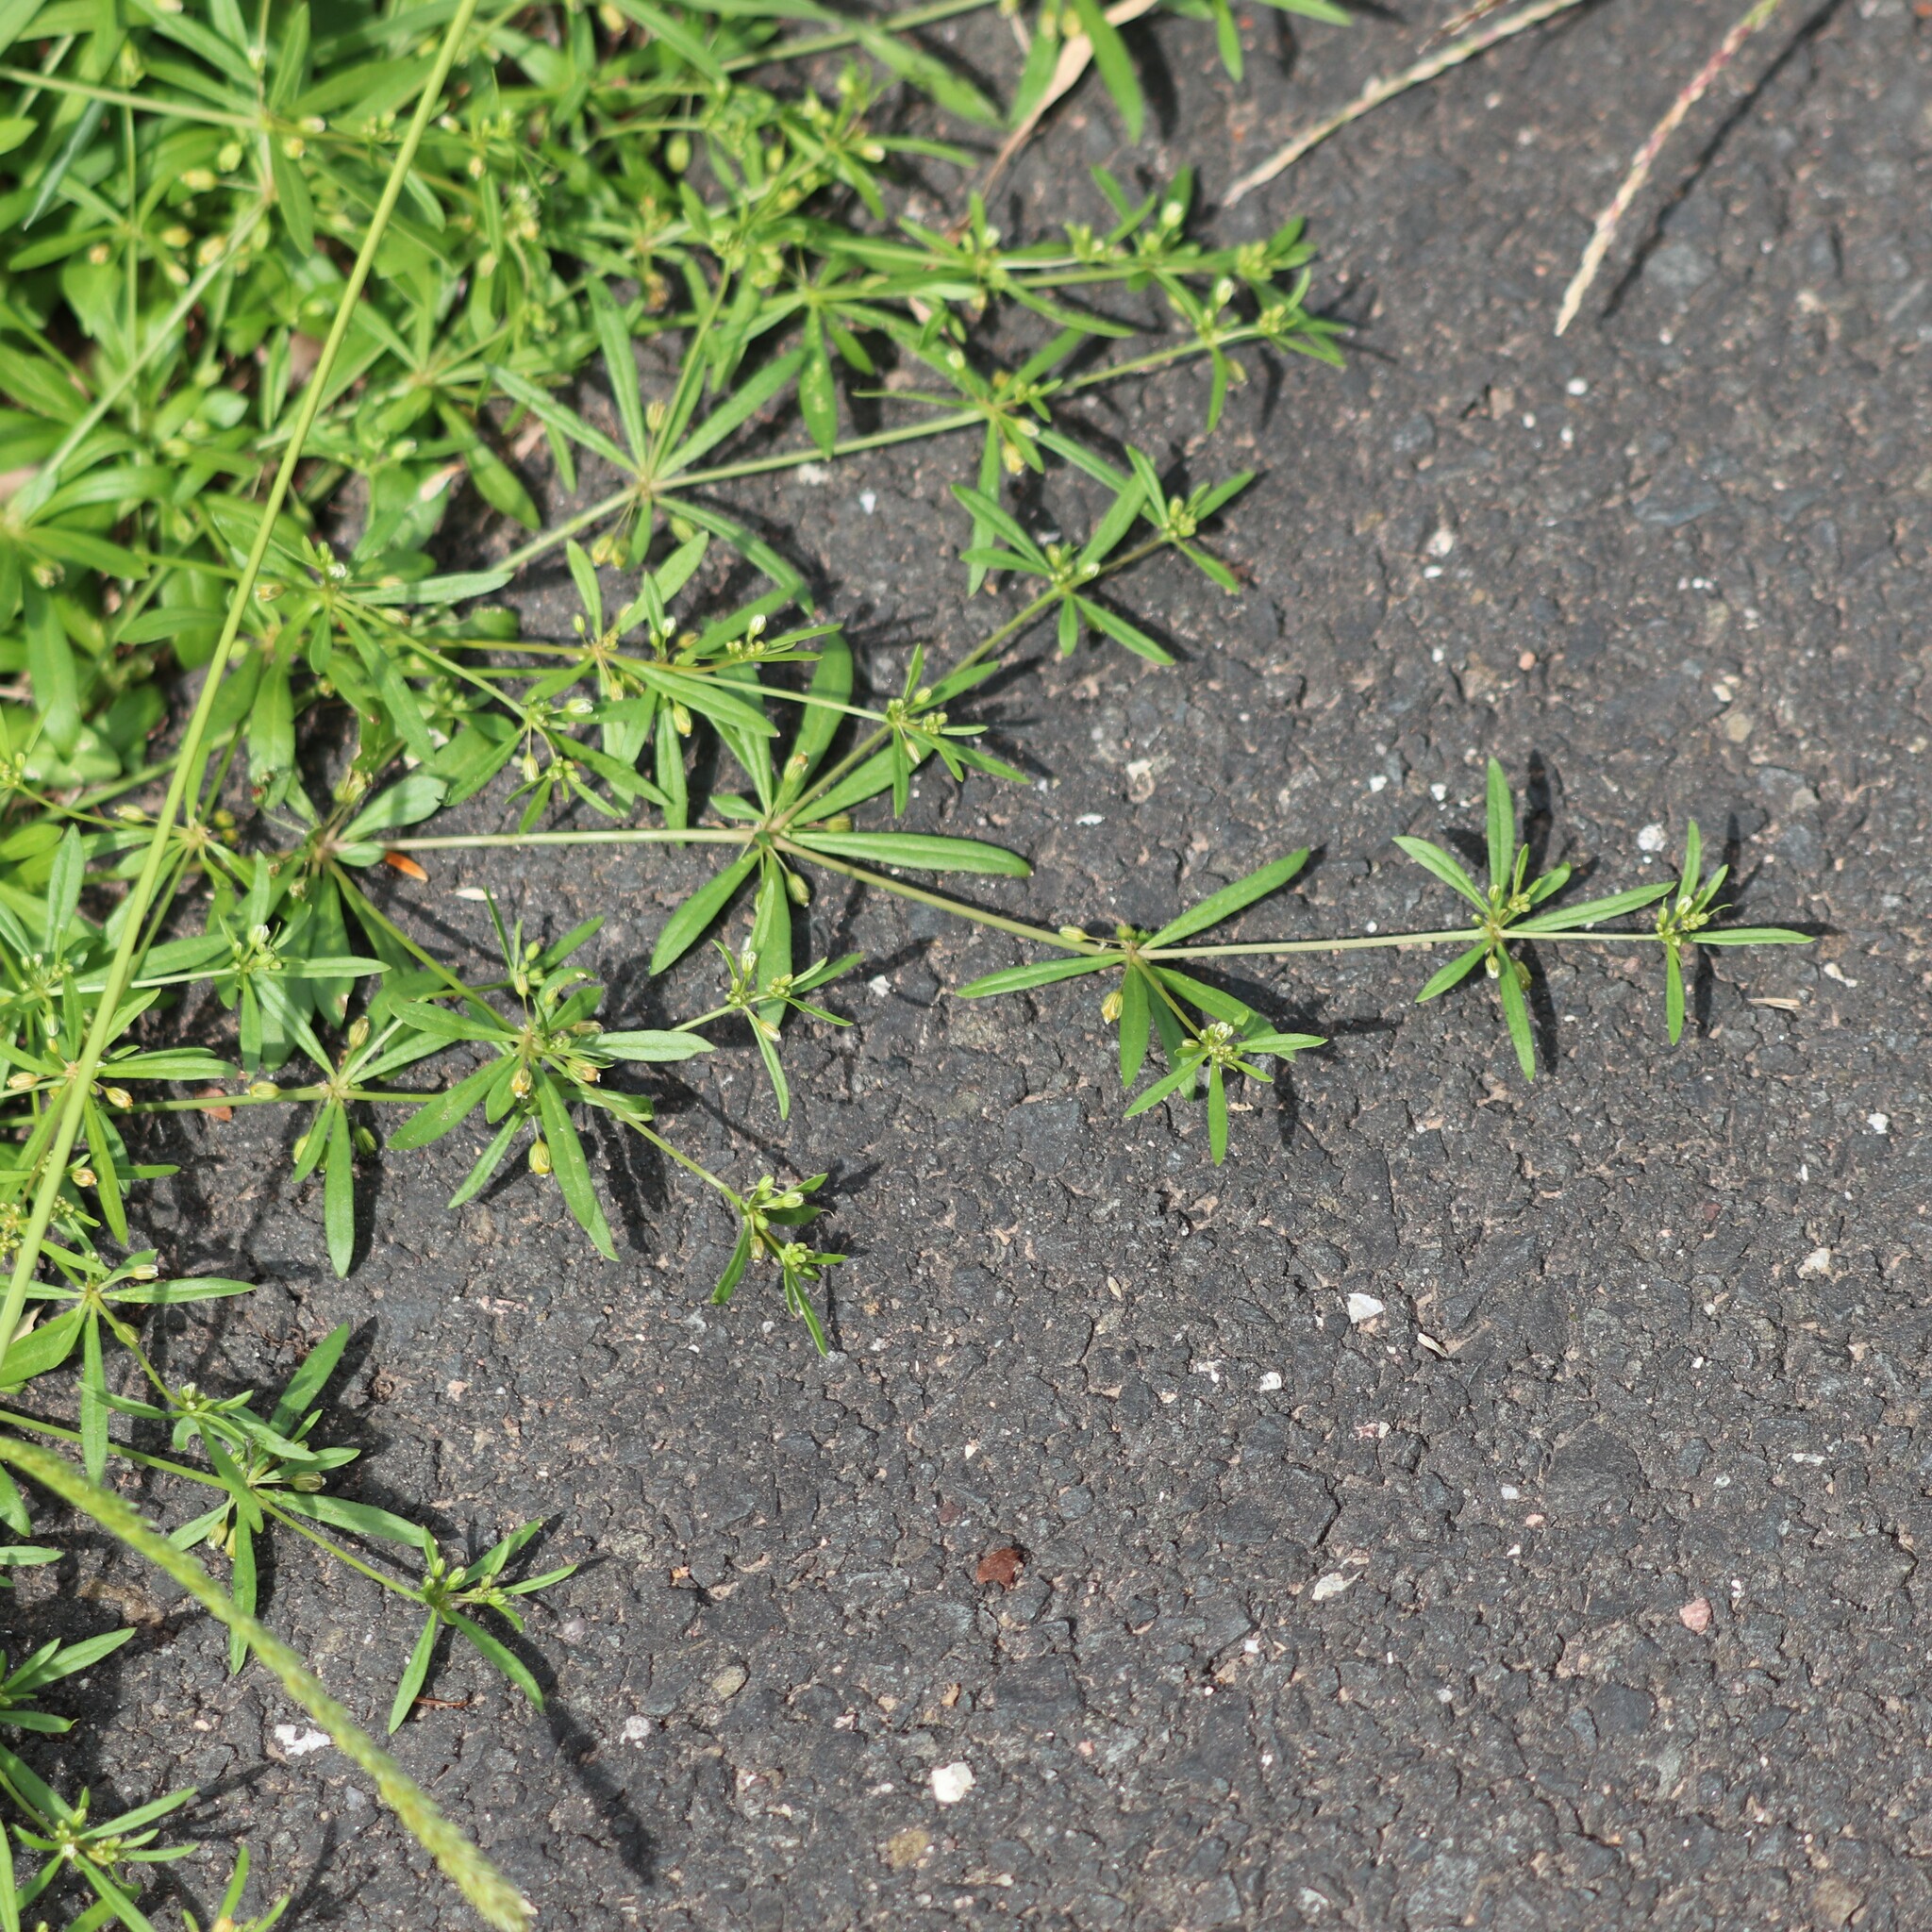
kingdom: Plantae
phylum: Tracheophyta
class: Magnoliopsida
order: Caryophyllales
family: Molluginaceae
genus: Mollugo
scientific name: Mollugo verticillata
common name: Green carpetweed
